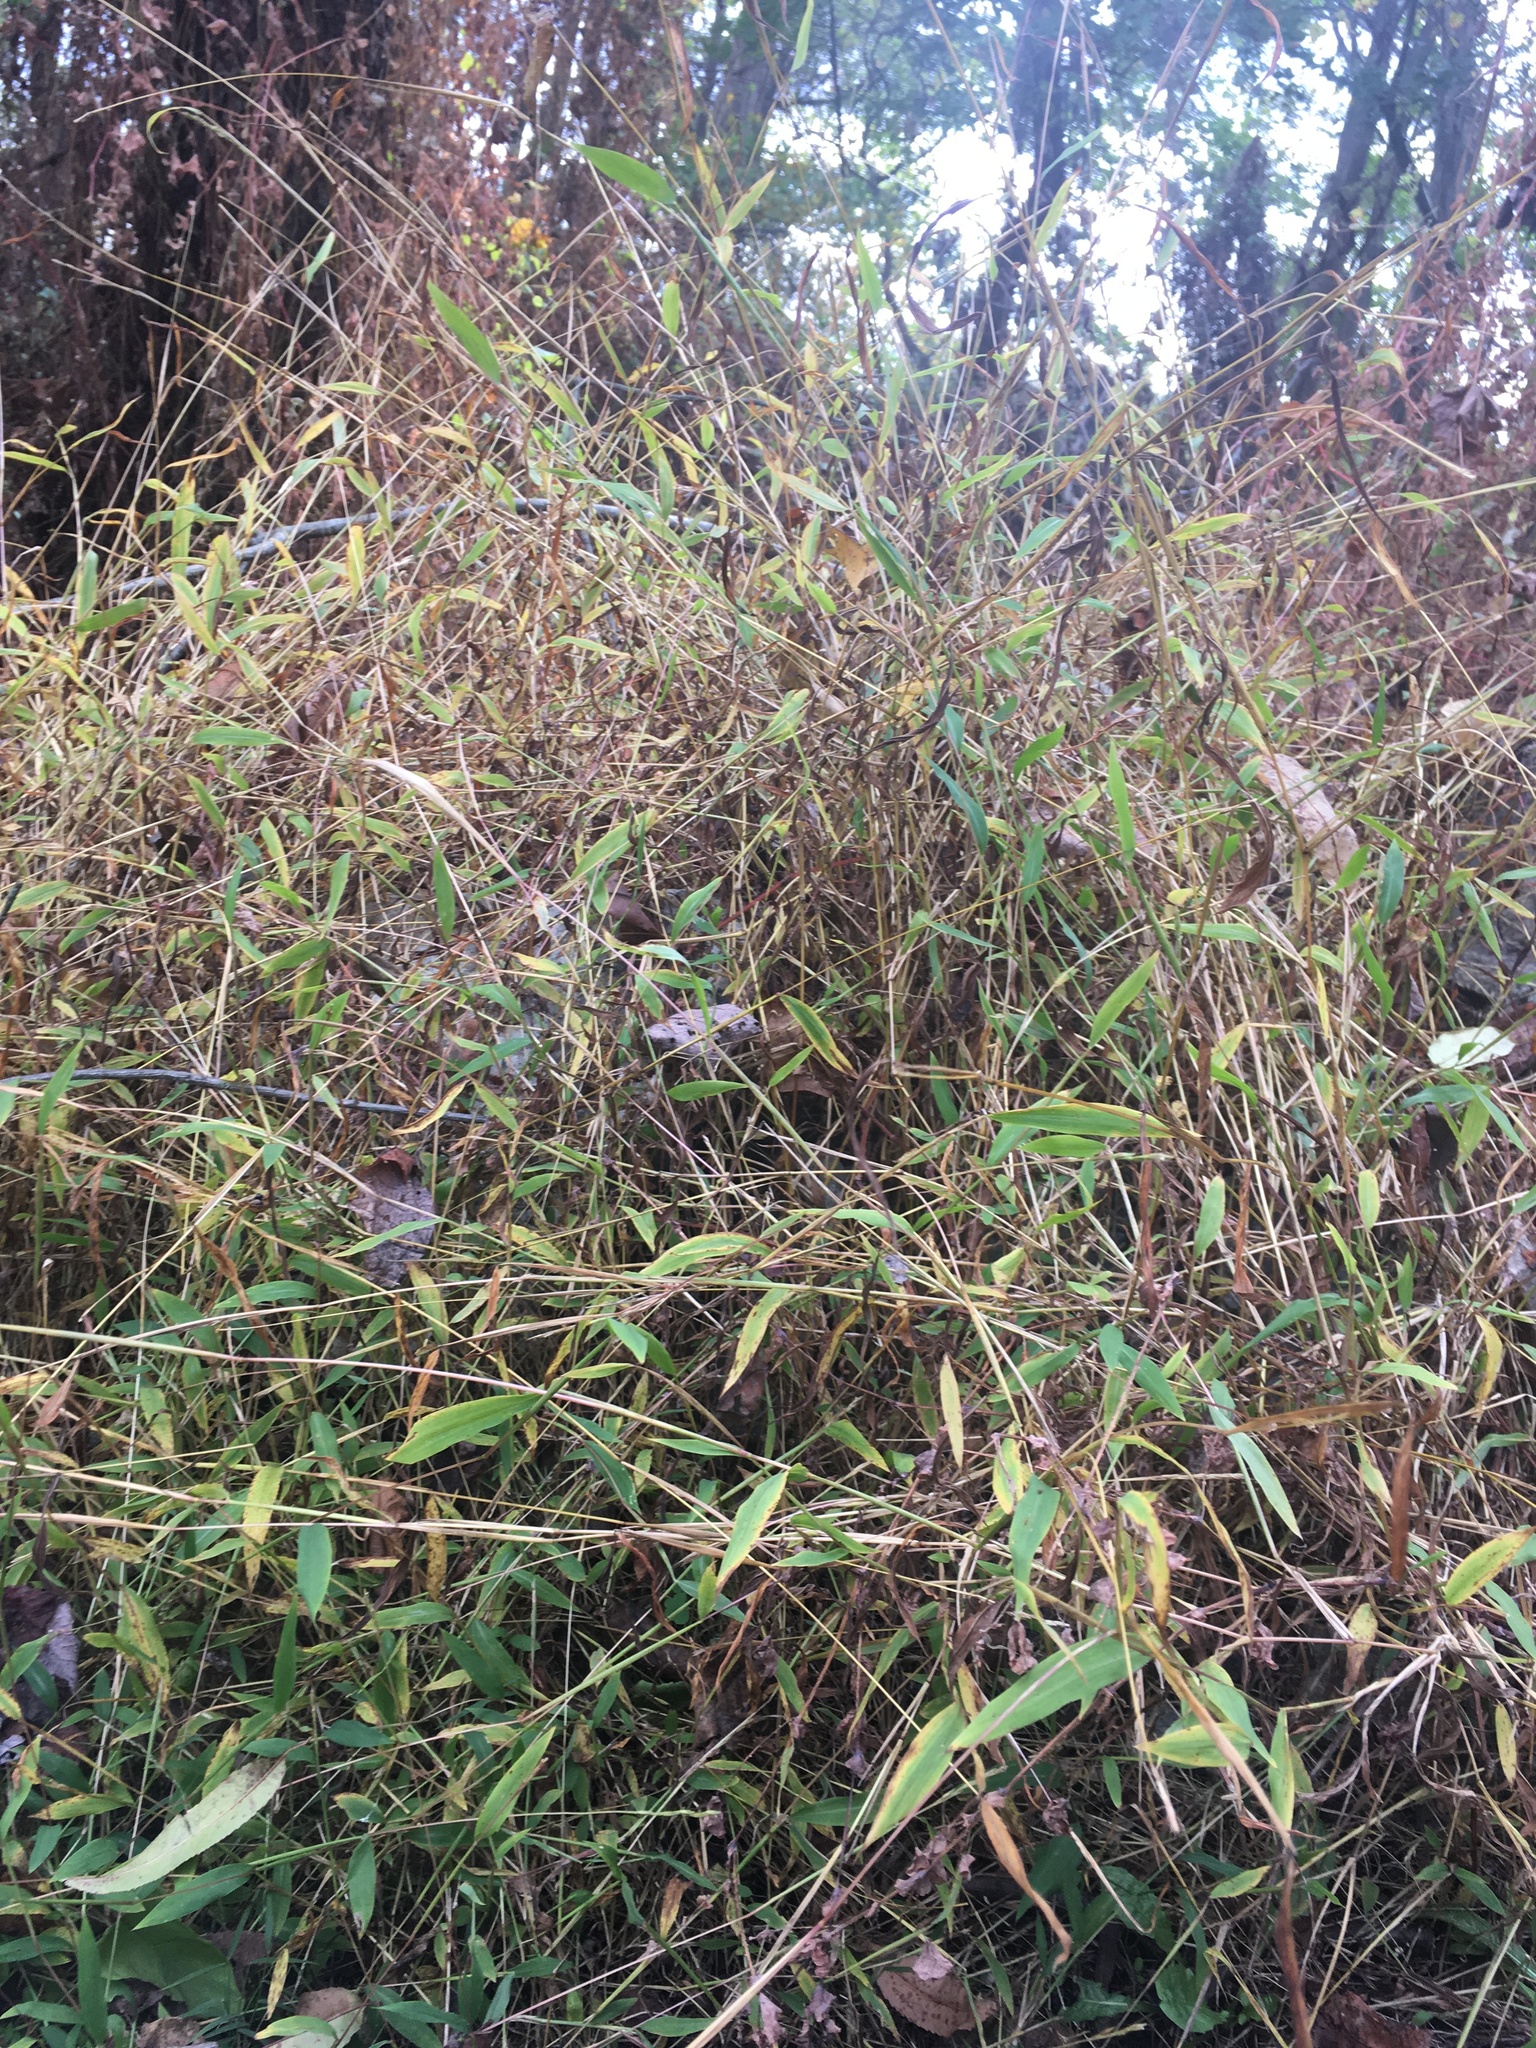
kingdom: Plantae
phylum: Tracheophyta
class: Liliopsida
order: Poales
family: Poaceae
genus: Microstegium
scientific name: Microstegium vimineum
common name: Japanese stiltgrass
